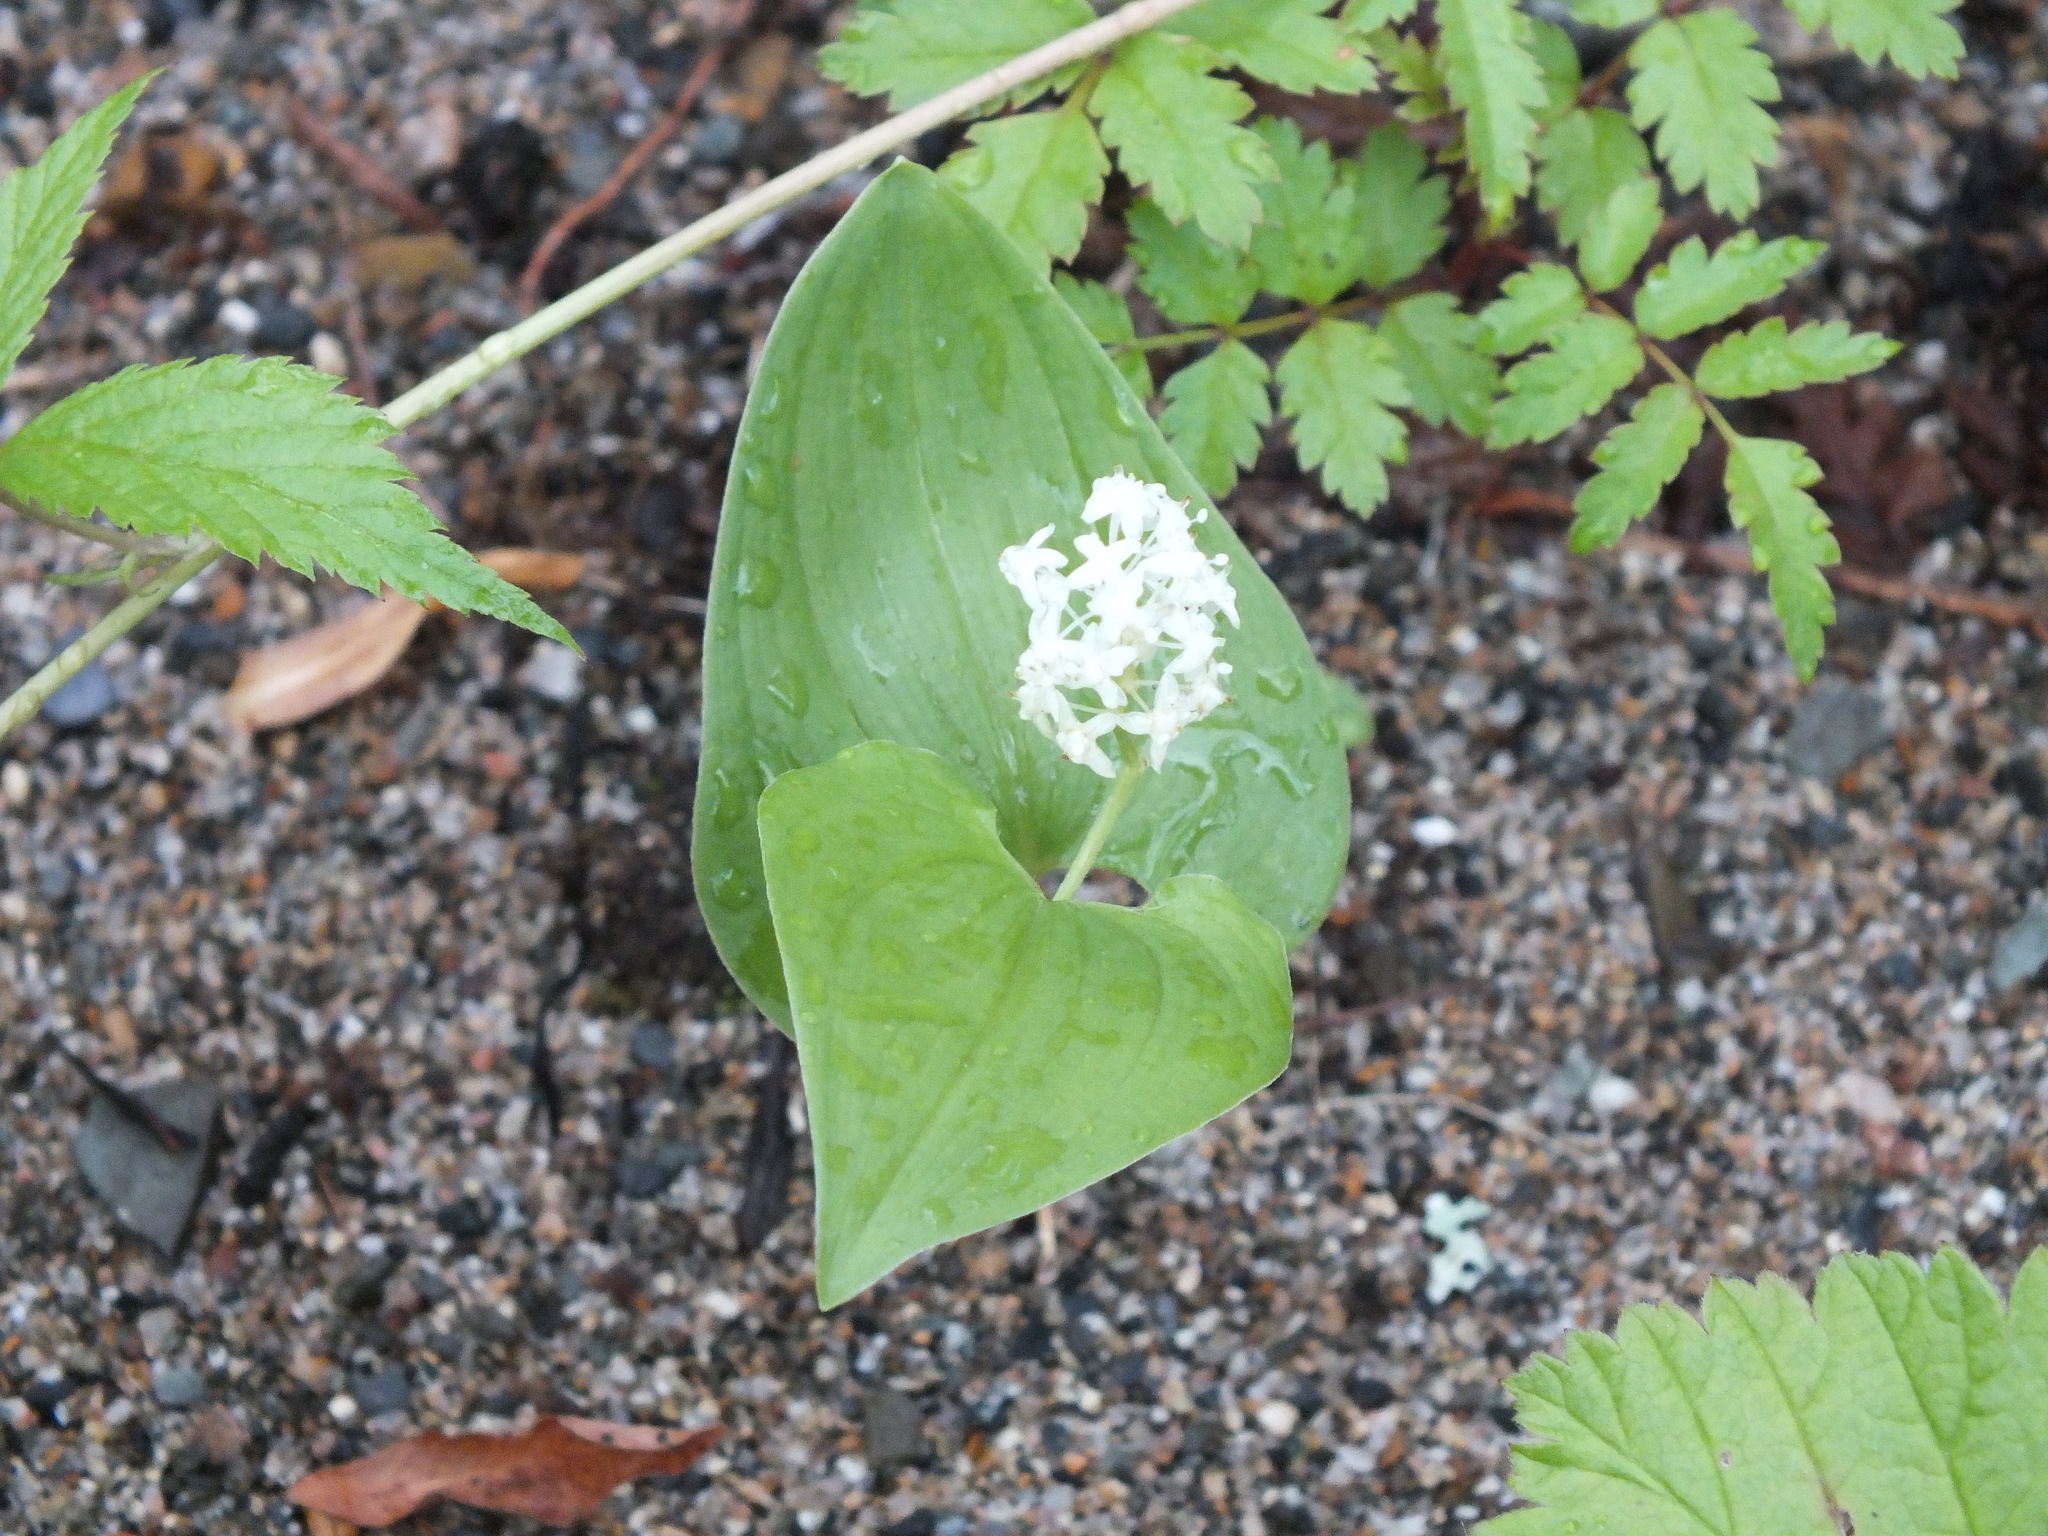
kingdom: Plantae
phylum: Tracheophyta
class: Liliopsida
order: Asparagales
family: Asparagaceae
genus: Maianthemum
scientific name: Maianthemum bifolium
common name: May lily
